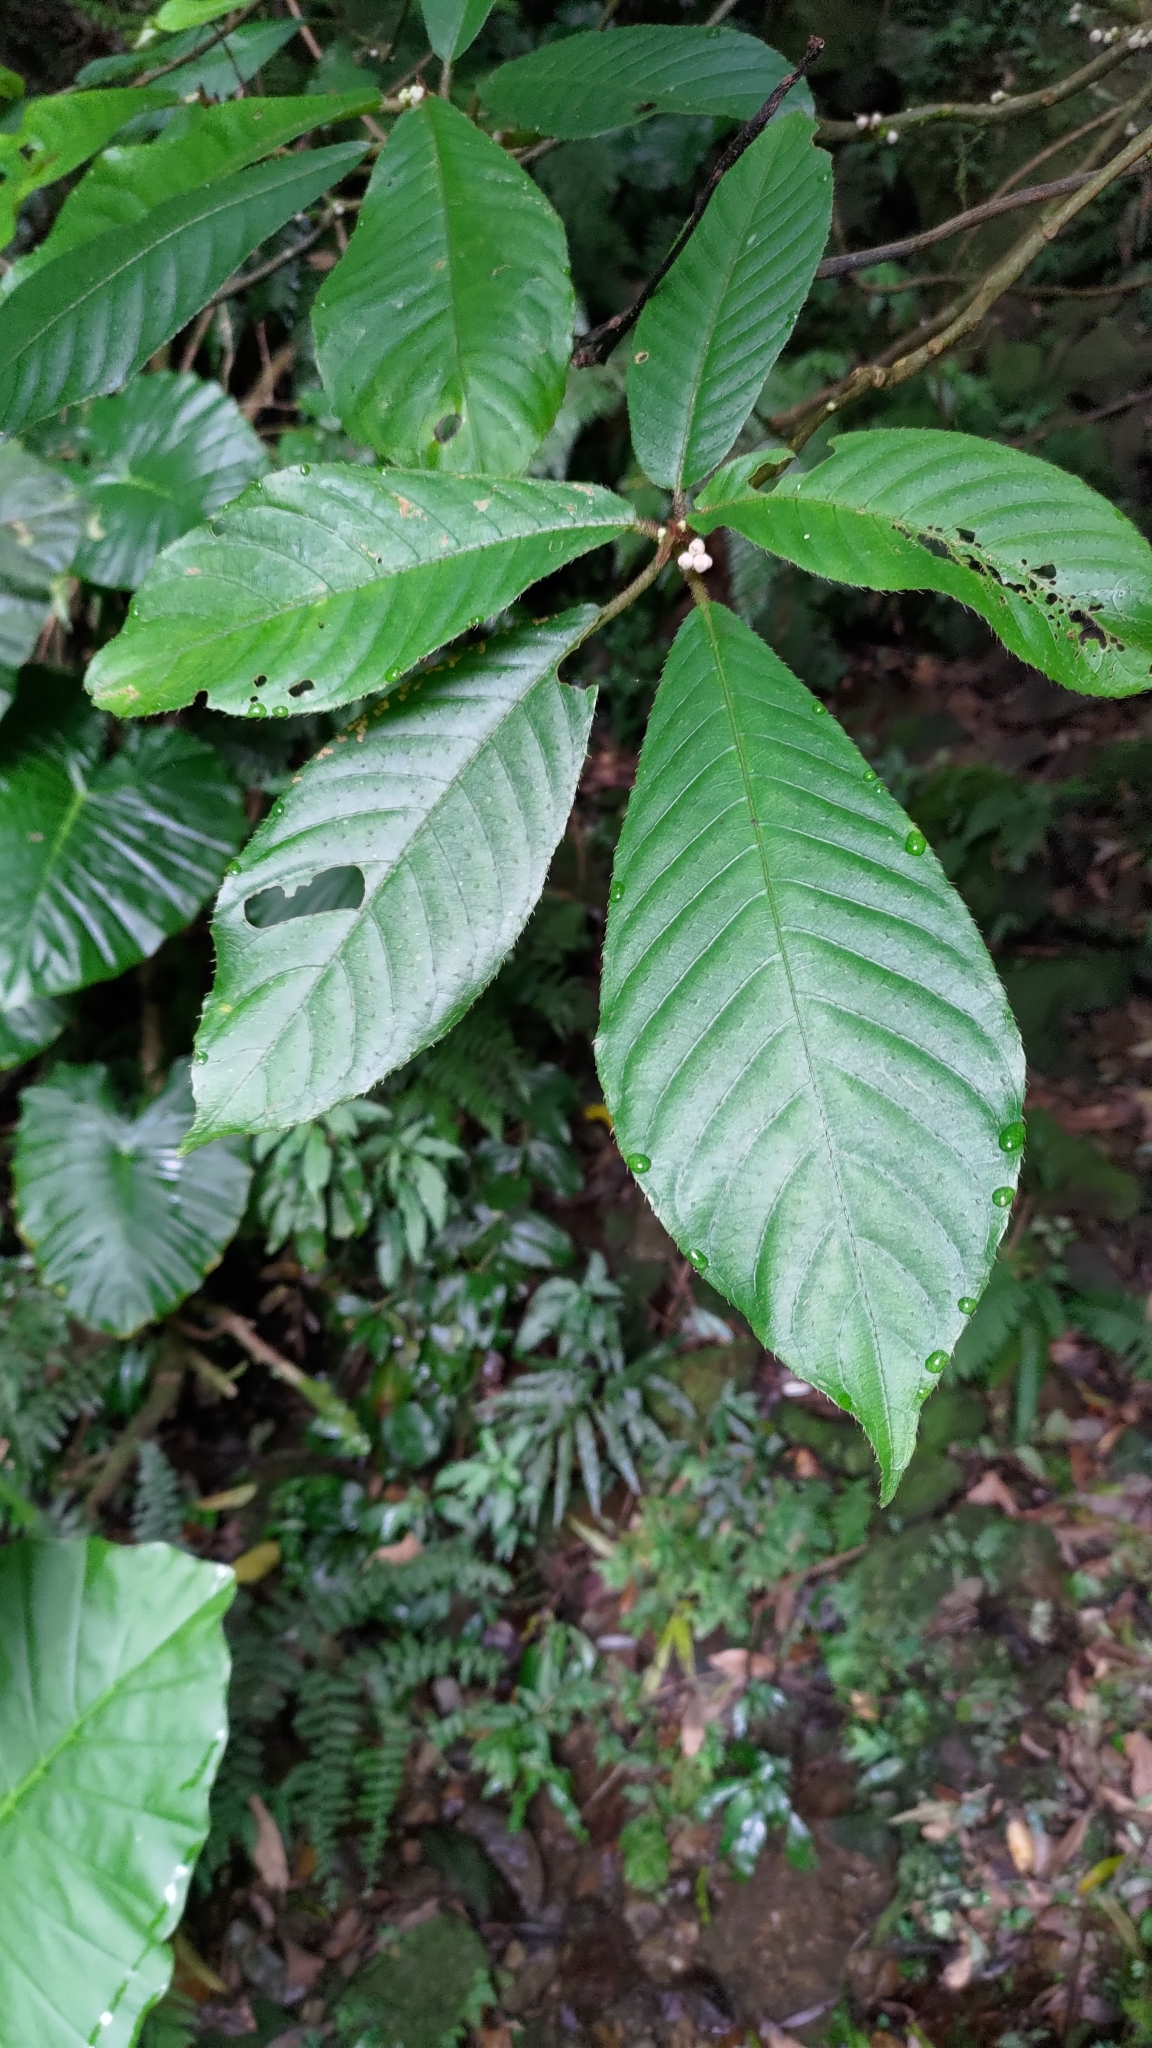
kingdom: Plantae
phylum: Tracheophyta
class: Magnoliopsida
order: Ericales
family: Actinidiaceae
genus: Saurauia
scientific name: Saurauia tristyla
